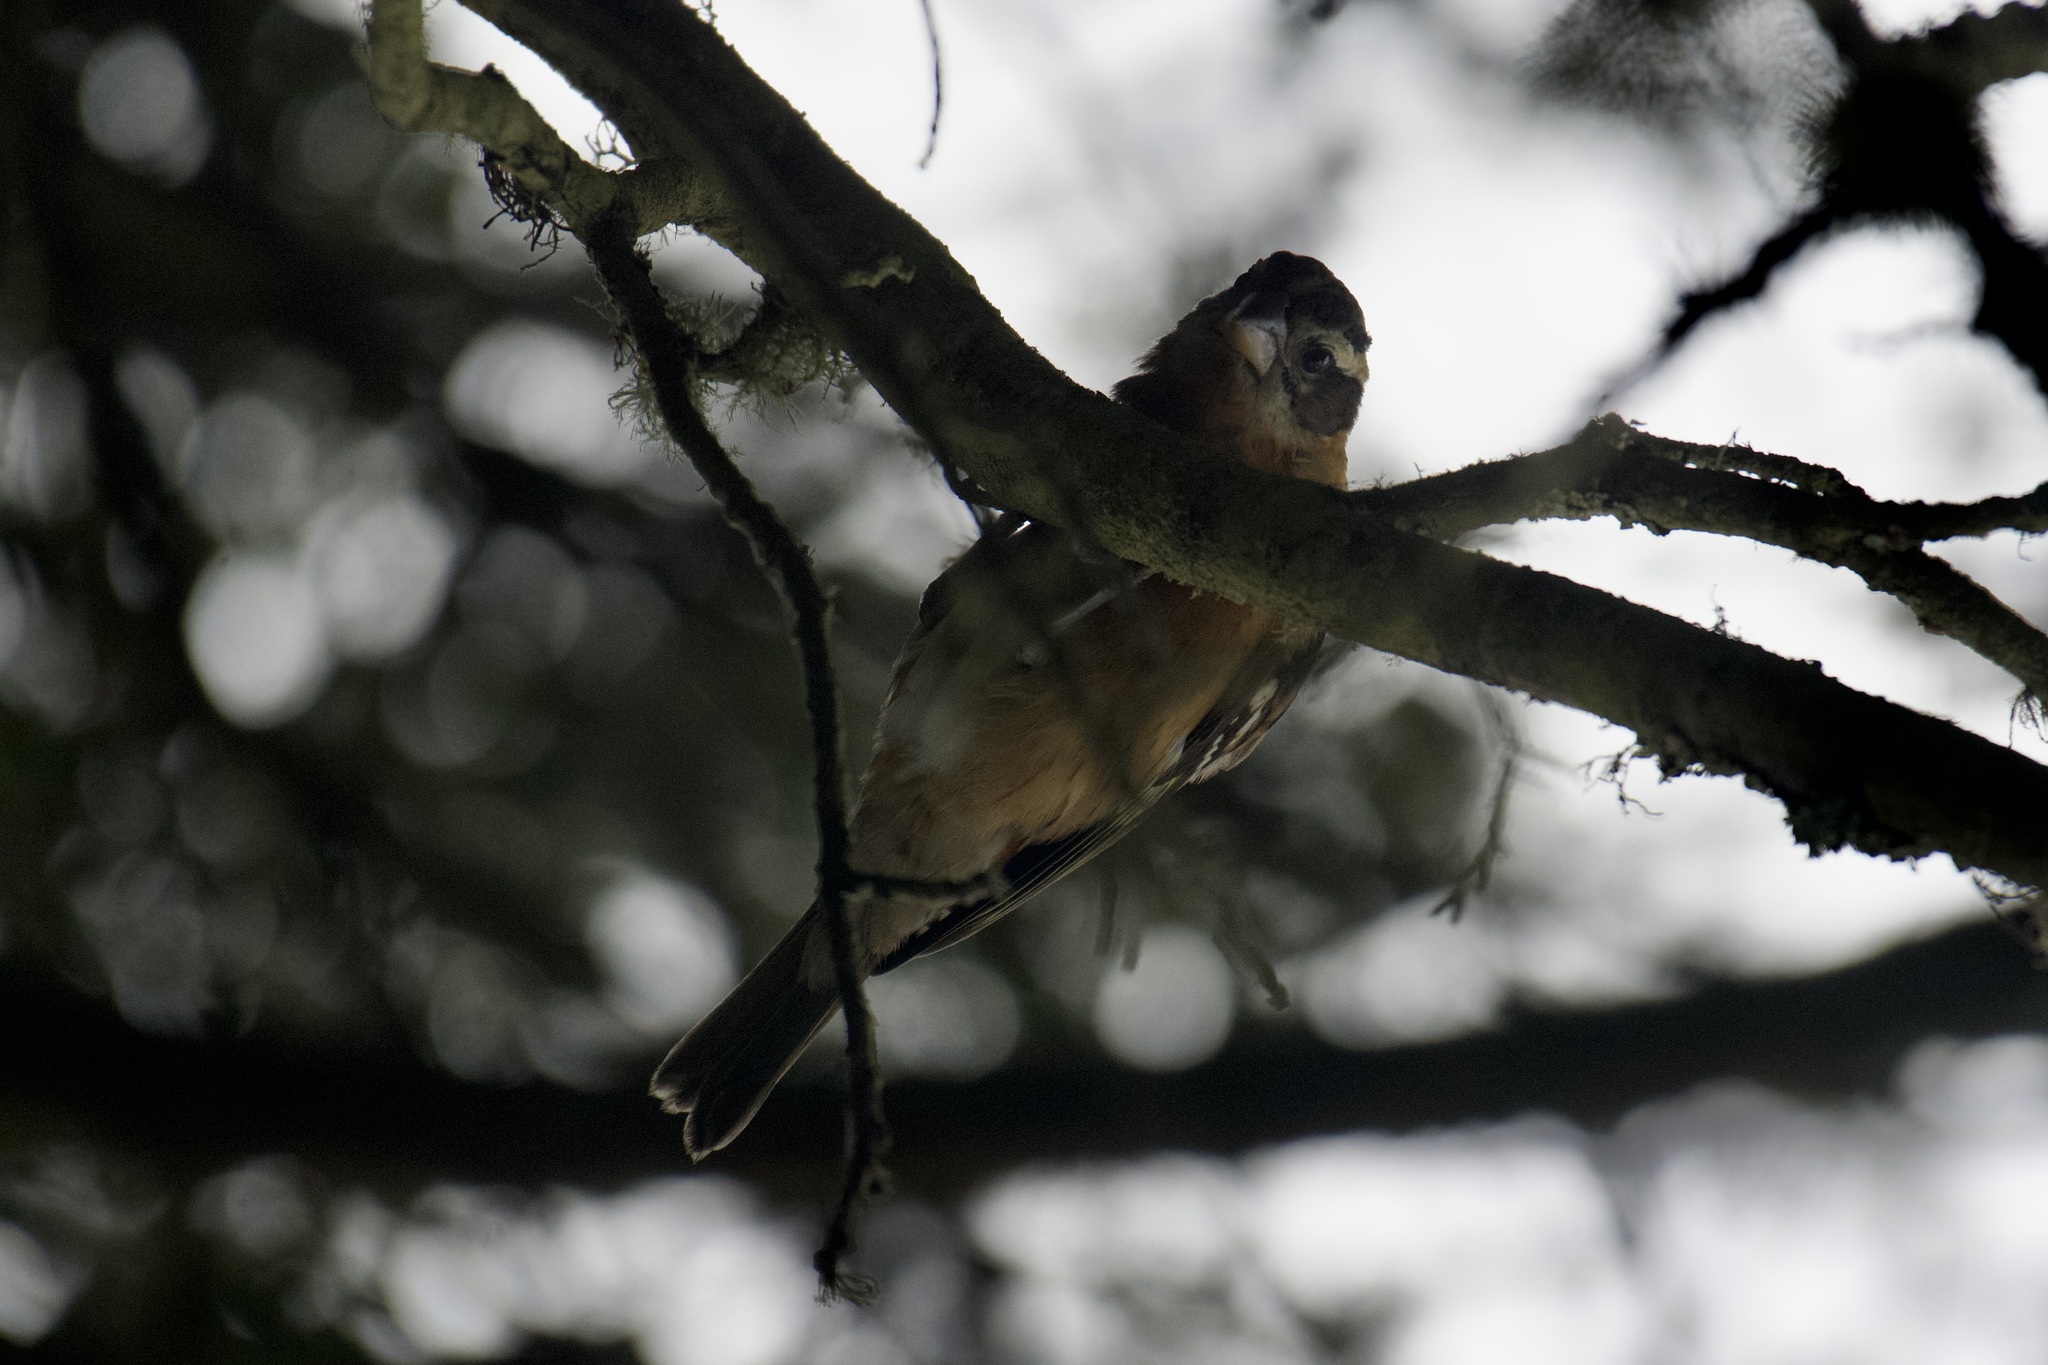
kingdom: Animalia
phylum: Chordata
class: Aves
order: Passeriformes
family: Cardinalidae
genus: Pheucticus
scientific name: Pheucticus melanocephalus
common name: Black-headed grosbeak
